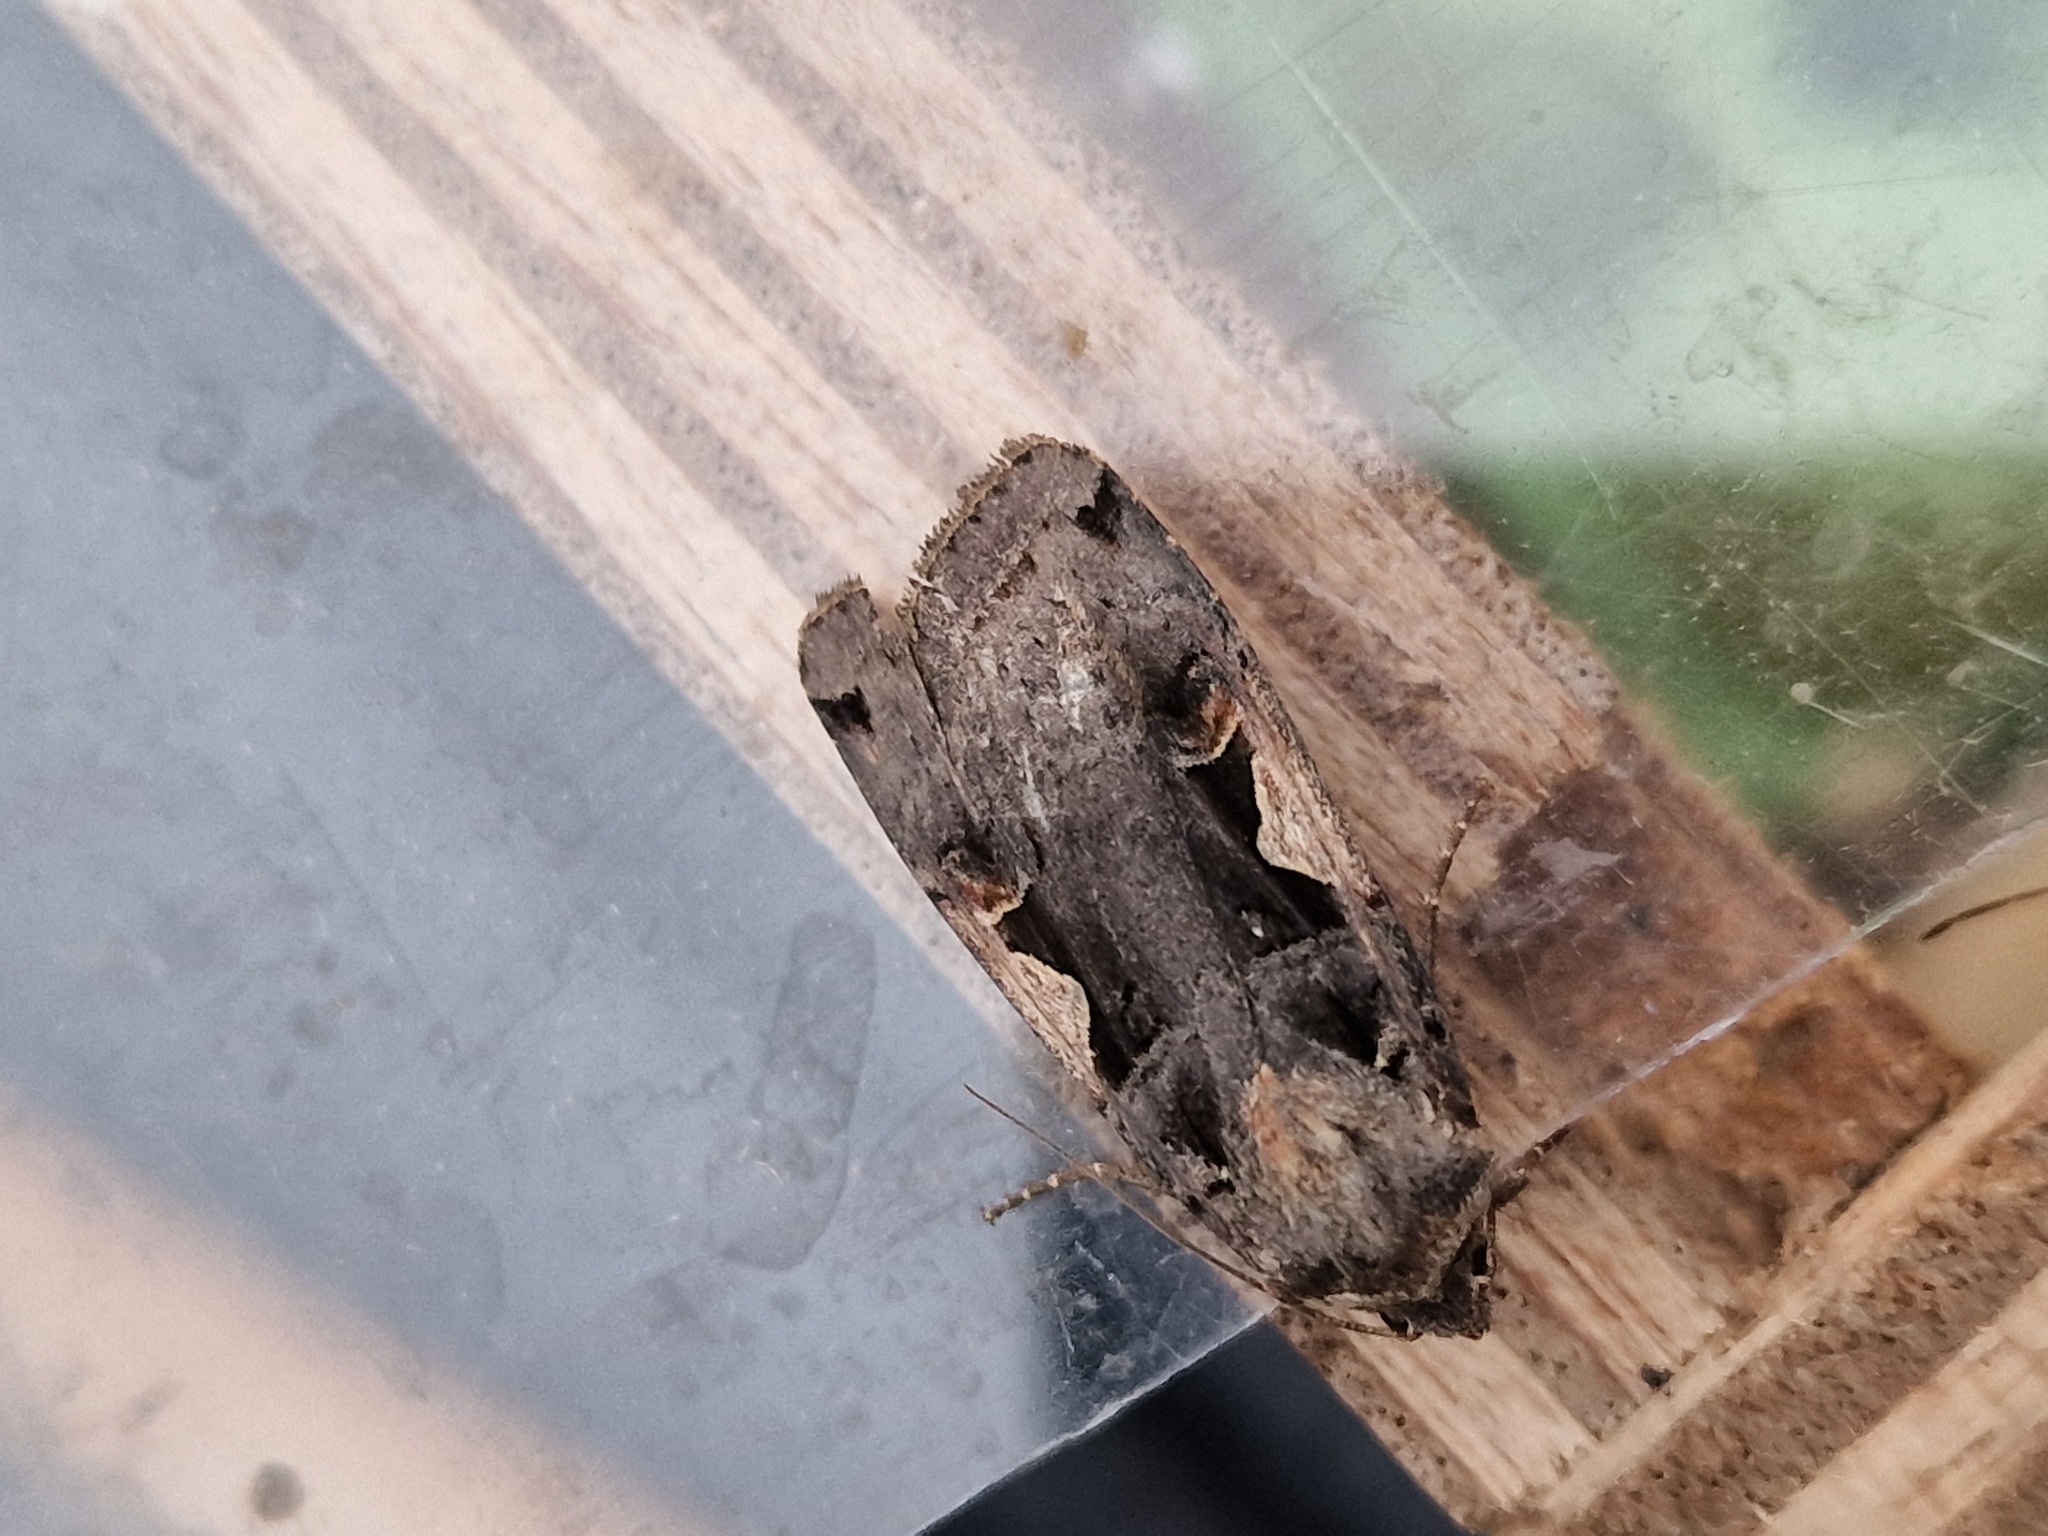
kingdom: Animalia
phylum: Arthropoda
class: Insecta
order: Lepidoptera
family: Noctuidae
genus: Xestia
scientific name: Xestia c-nigrum
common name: Setaceous hebrew character
